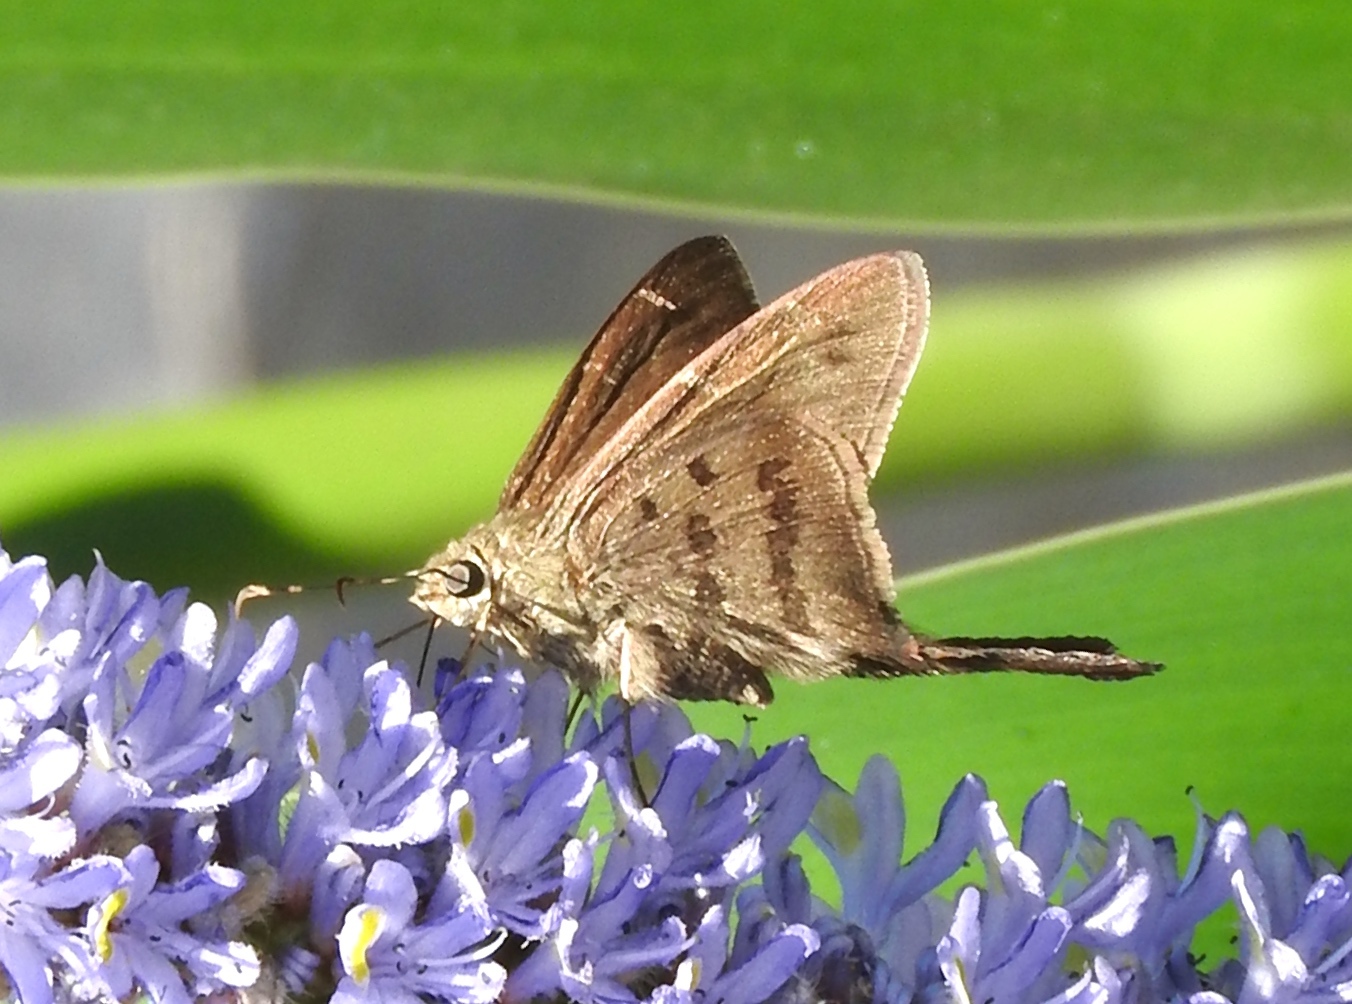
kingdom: Animalia
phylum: Arthropoda
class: Insecta
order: Lepidoptera
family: Hesperiidae
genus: Urbanus
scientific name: Urbanus procne
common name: Brown longtail
